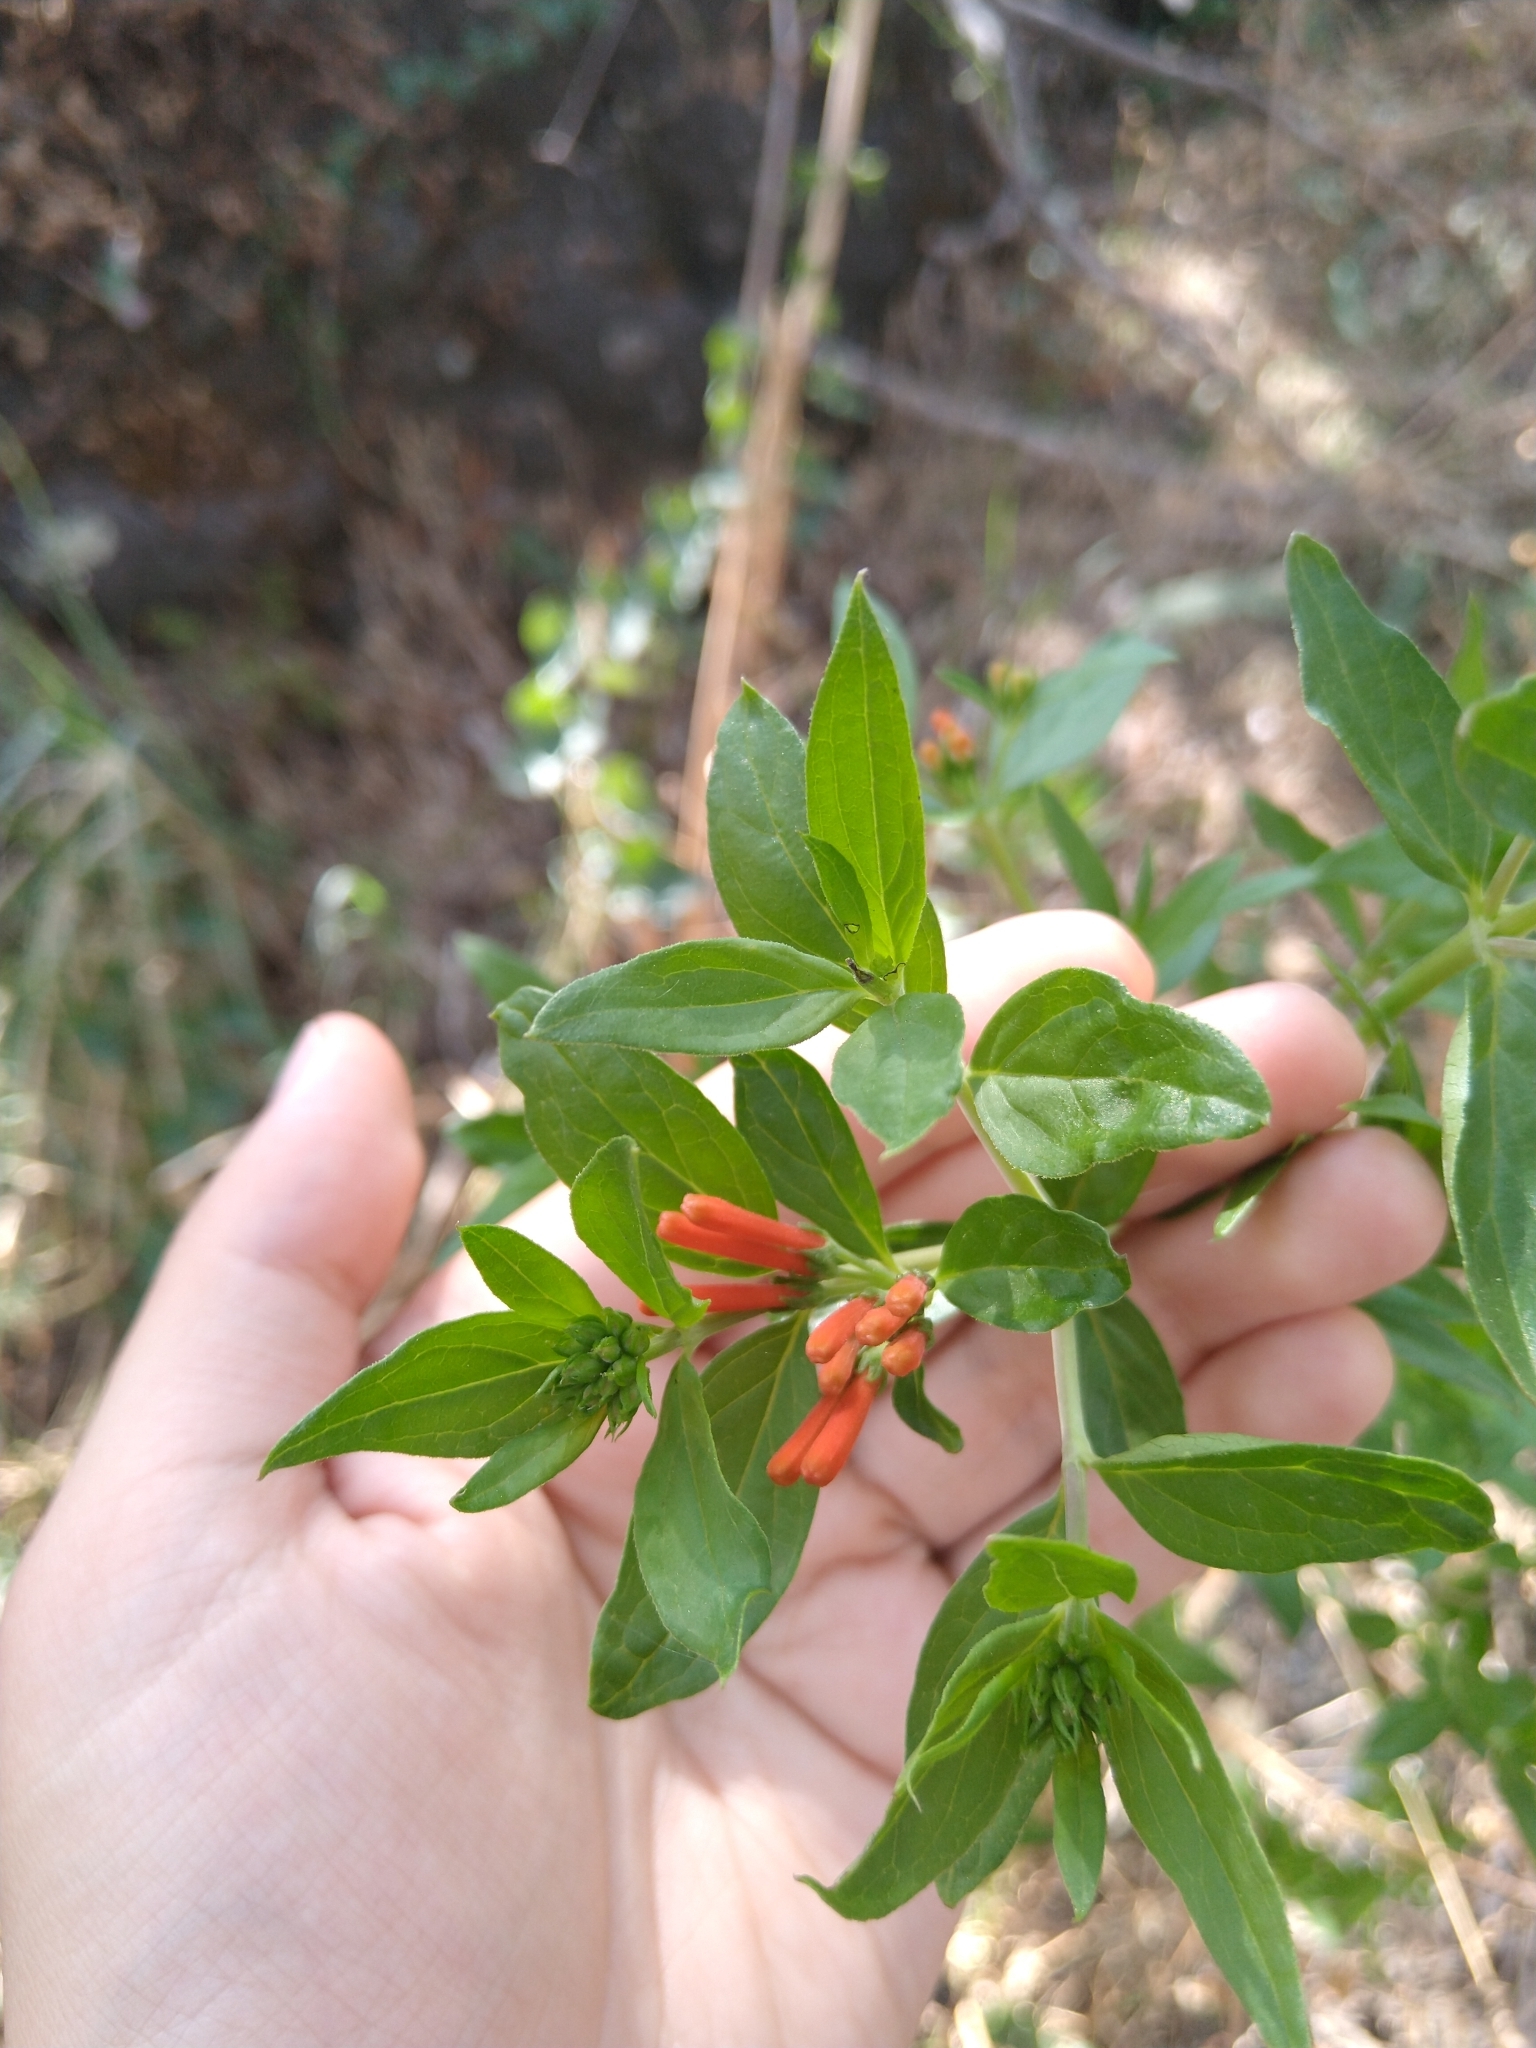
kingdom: Plantae
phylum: Tracheophyta
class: Magnoliopsida
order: Gentianales
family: Rubiaceae
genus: Bouvardia
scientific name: Bouvardia ternifolia
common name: Scarlet bouvardia
